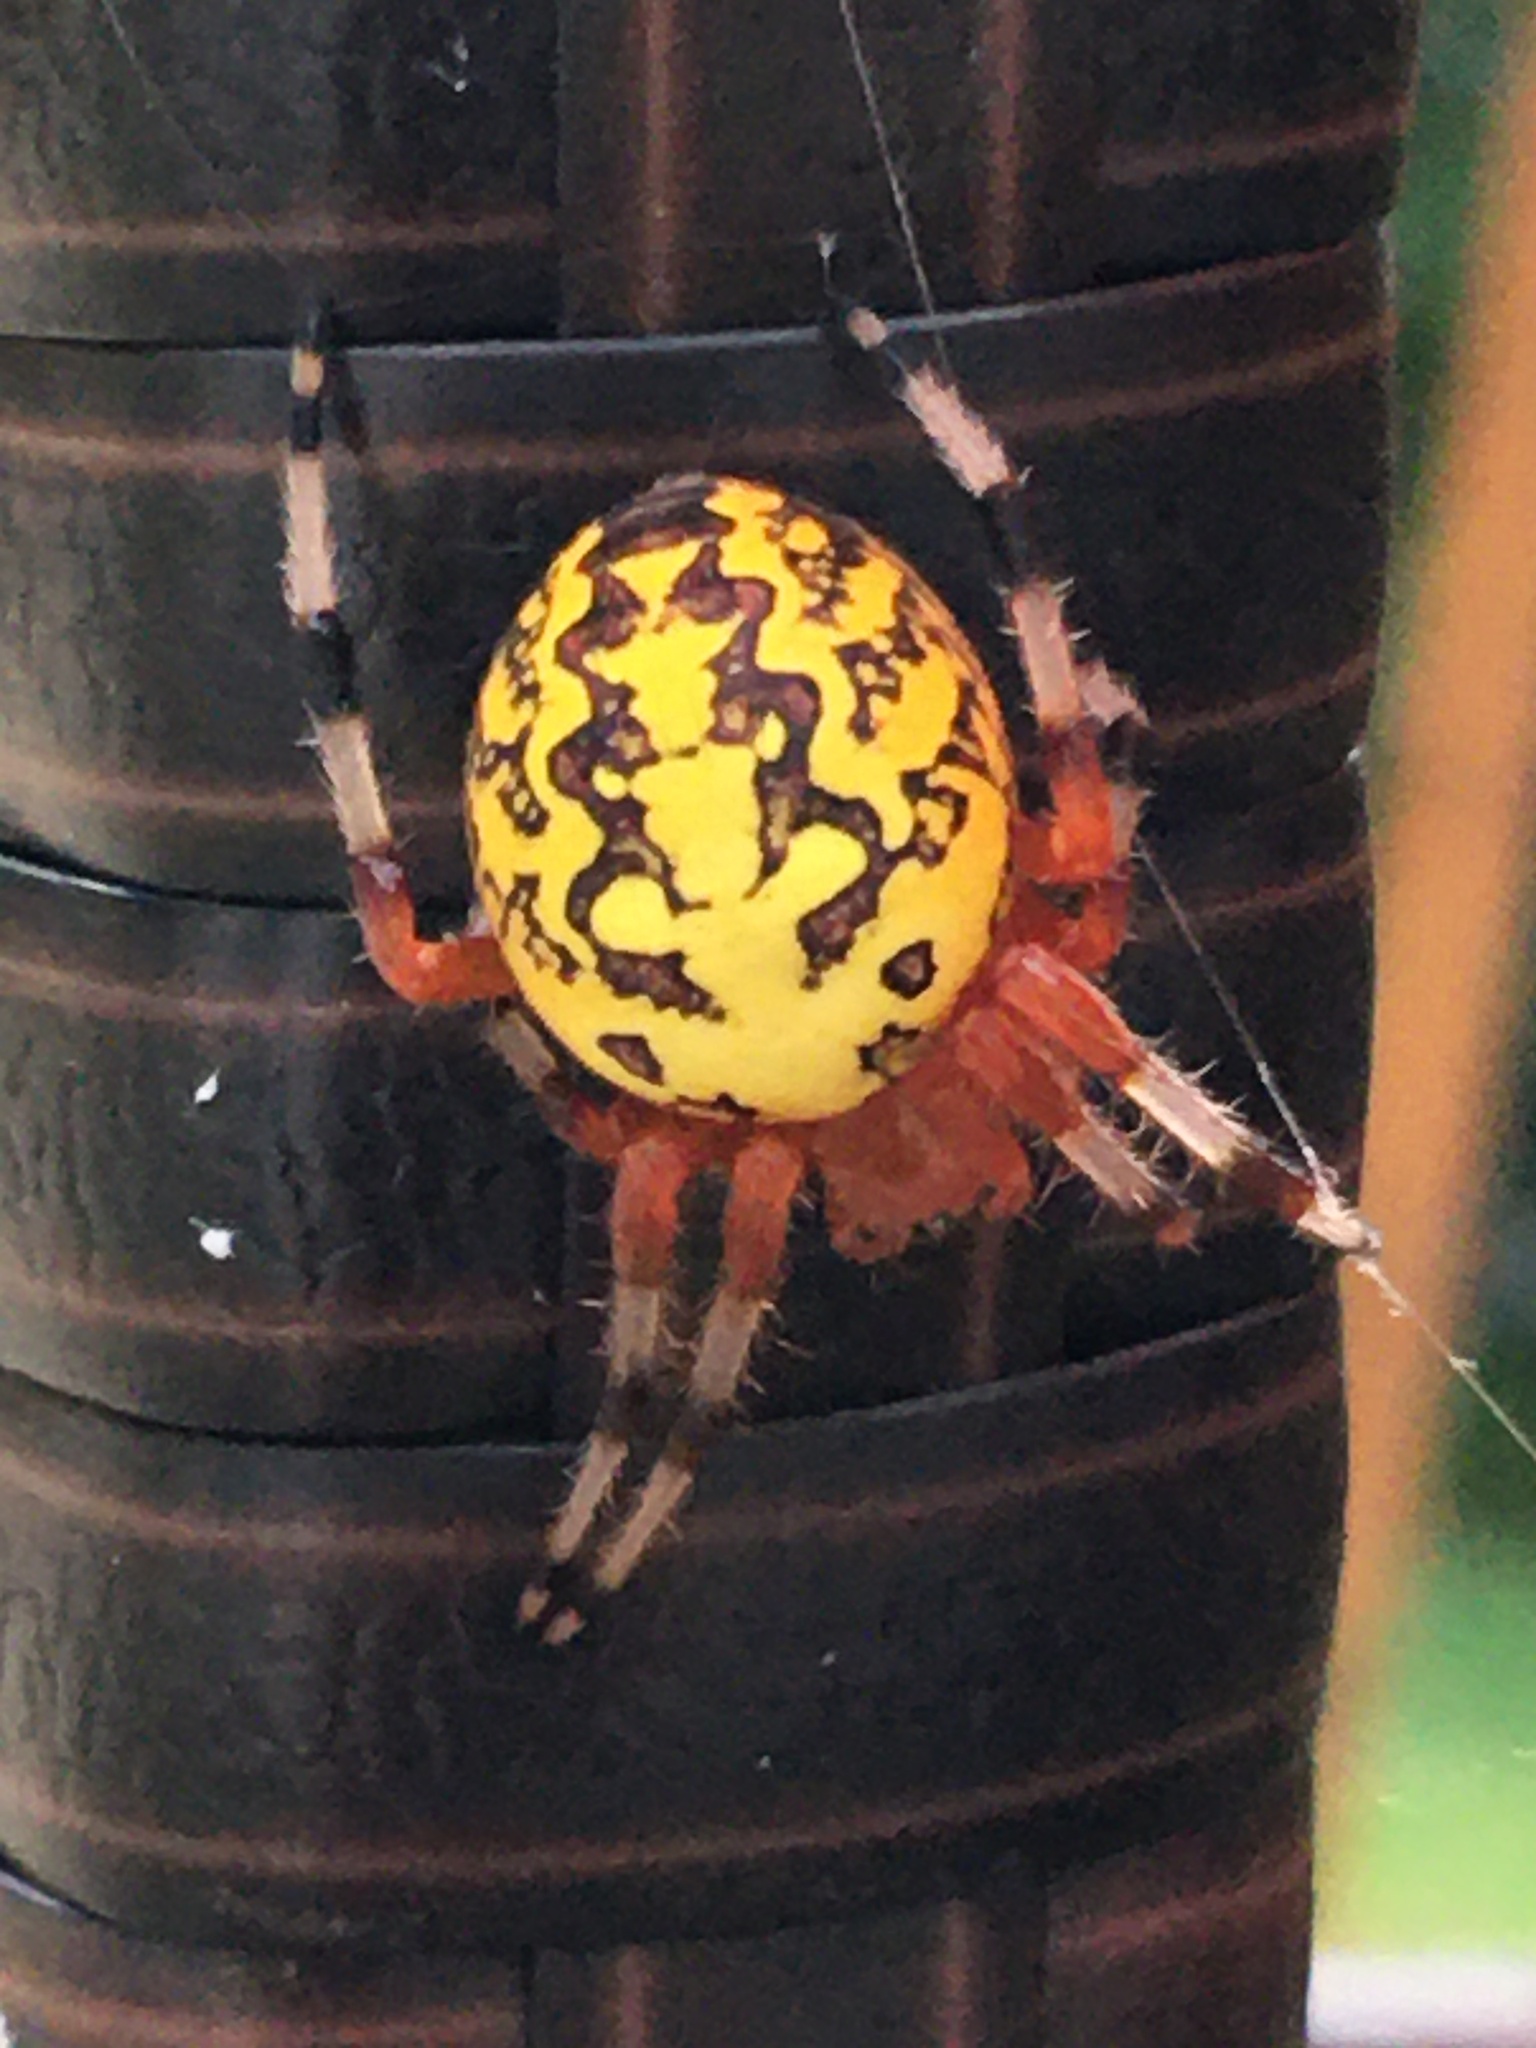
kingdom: Animalia
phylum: Arthropoda
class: Arachnida
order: Araneae
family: Araneidae
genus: Araneus
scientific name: Araneus marmoreus
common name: Marbled orbweaver
